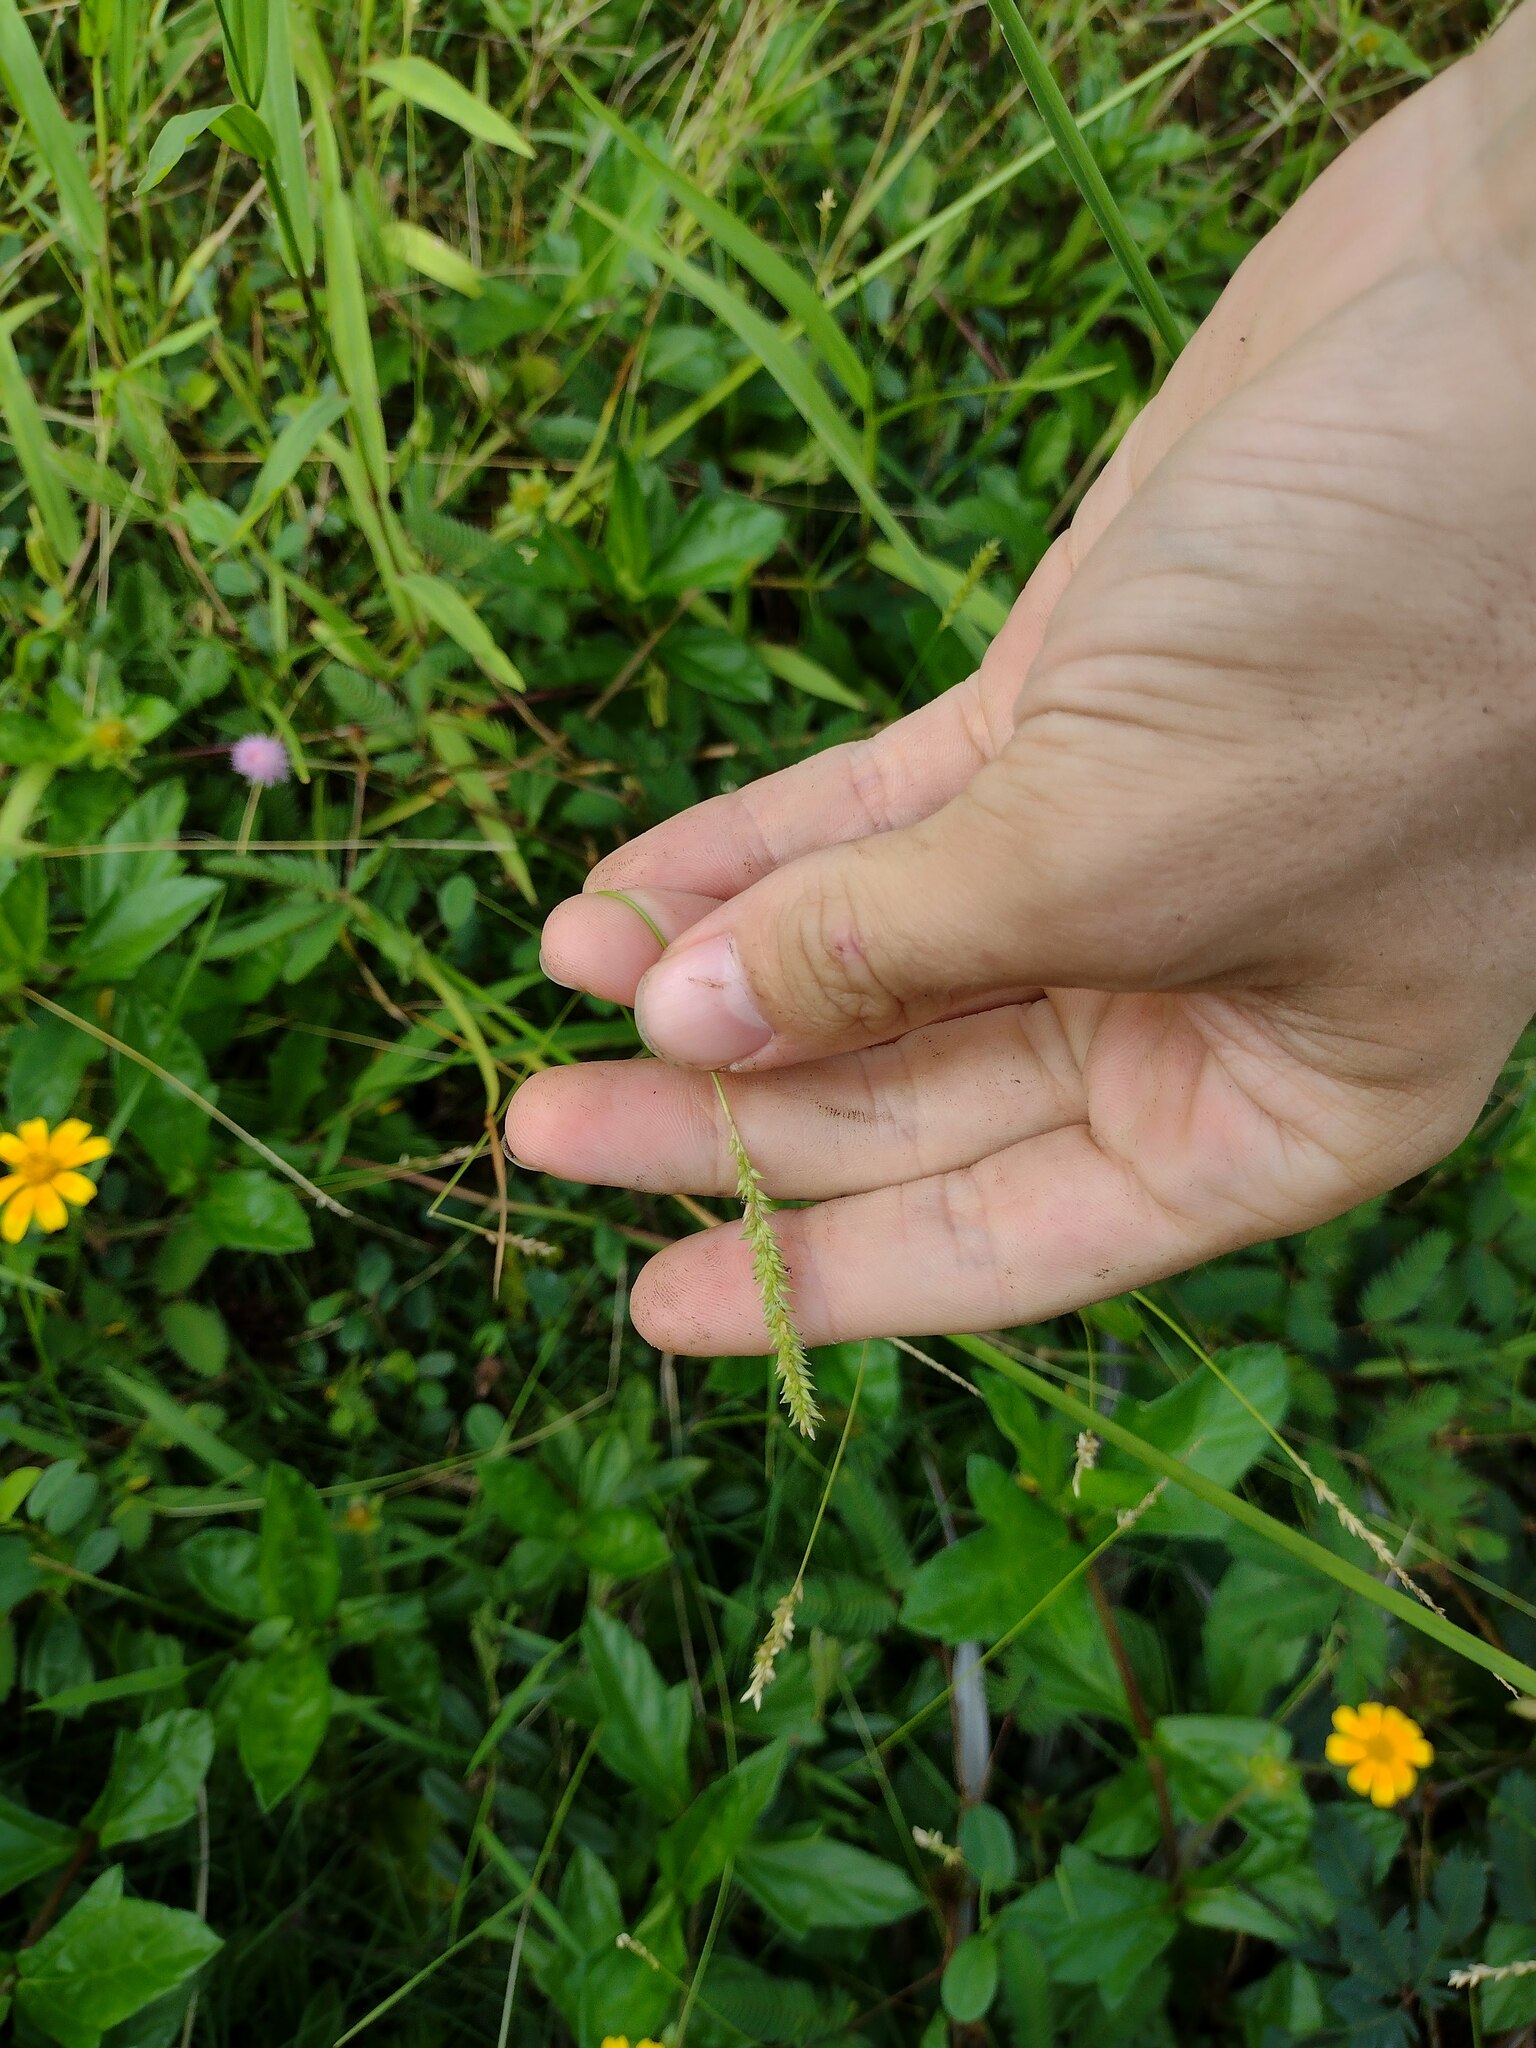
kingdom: Plantae
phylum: Tracheophyta
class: Liliopsida
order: Poales
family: Poaceae
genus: Sacciolepis
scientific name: Sacciolepis indica
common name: Glenwoodgrass
